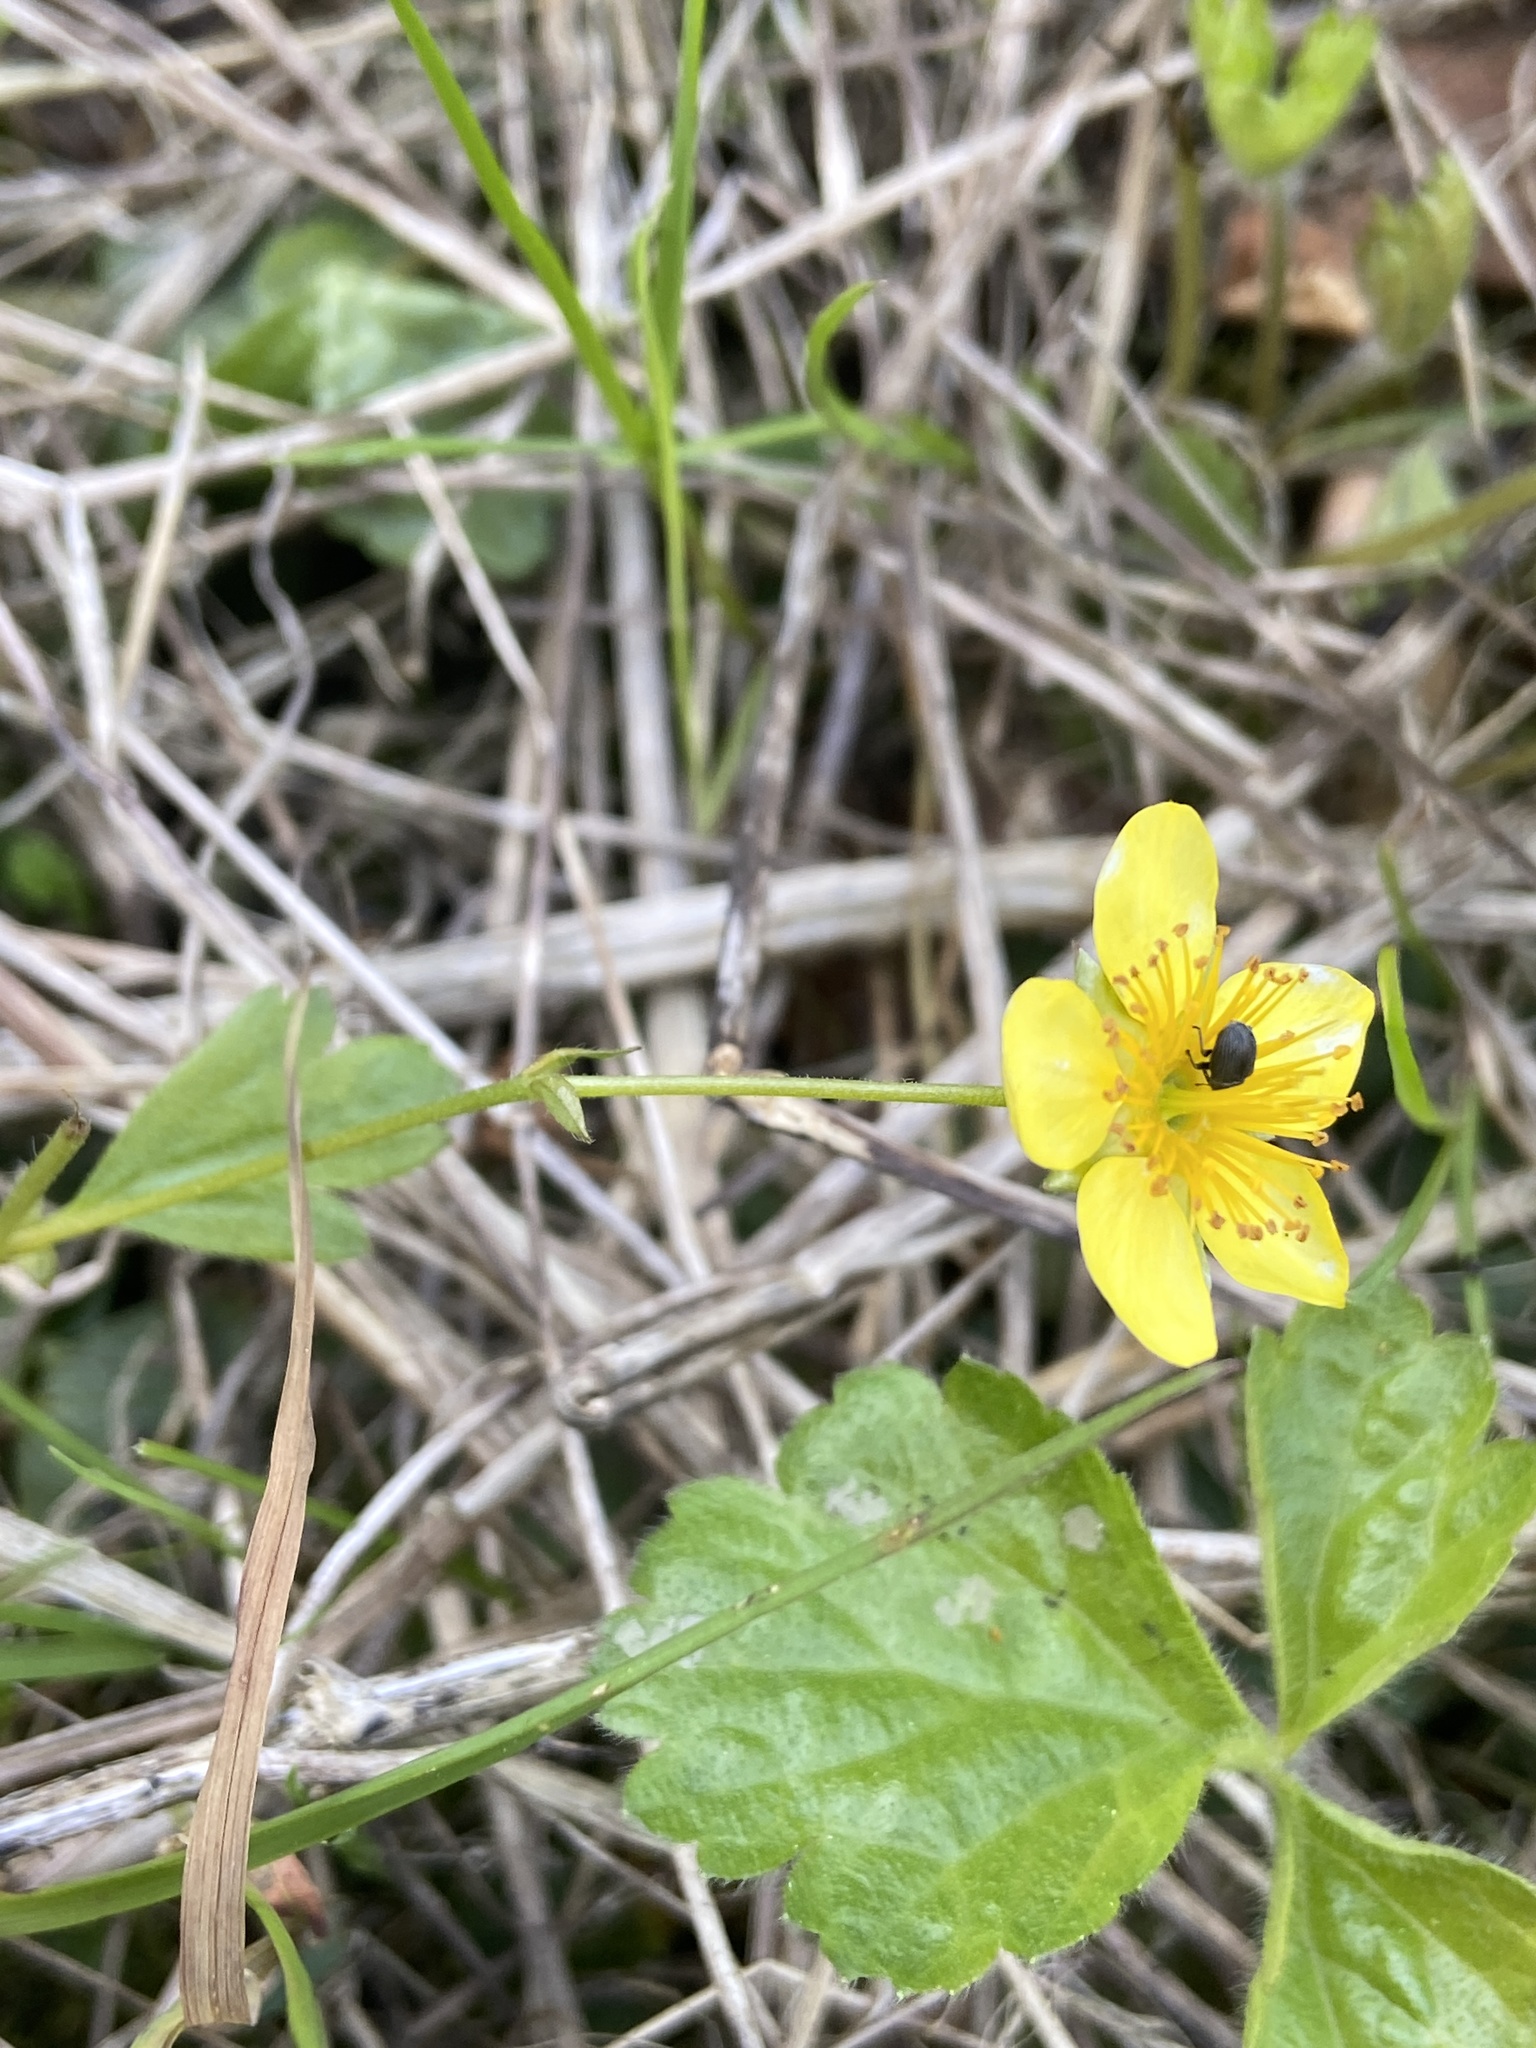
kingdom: Plantae
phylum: Tracheophyta
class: Magnoliopsida
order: Rosales
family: Rosaceae
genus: Geum
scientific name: Geum ternatum
